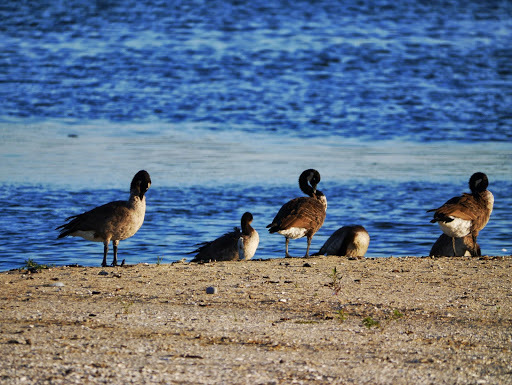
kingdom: Animalia
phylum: Chordata
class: Aves
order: Anseriformes
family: Anatidae
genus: Branta
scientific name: Branta canadensis
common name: Canada goose
